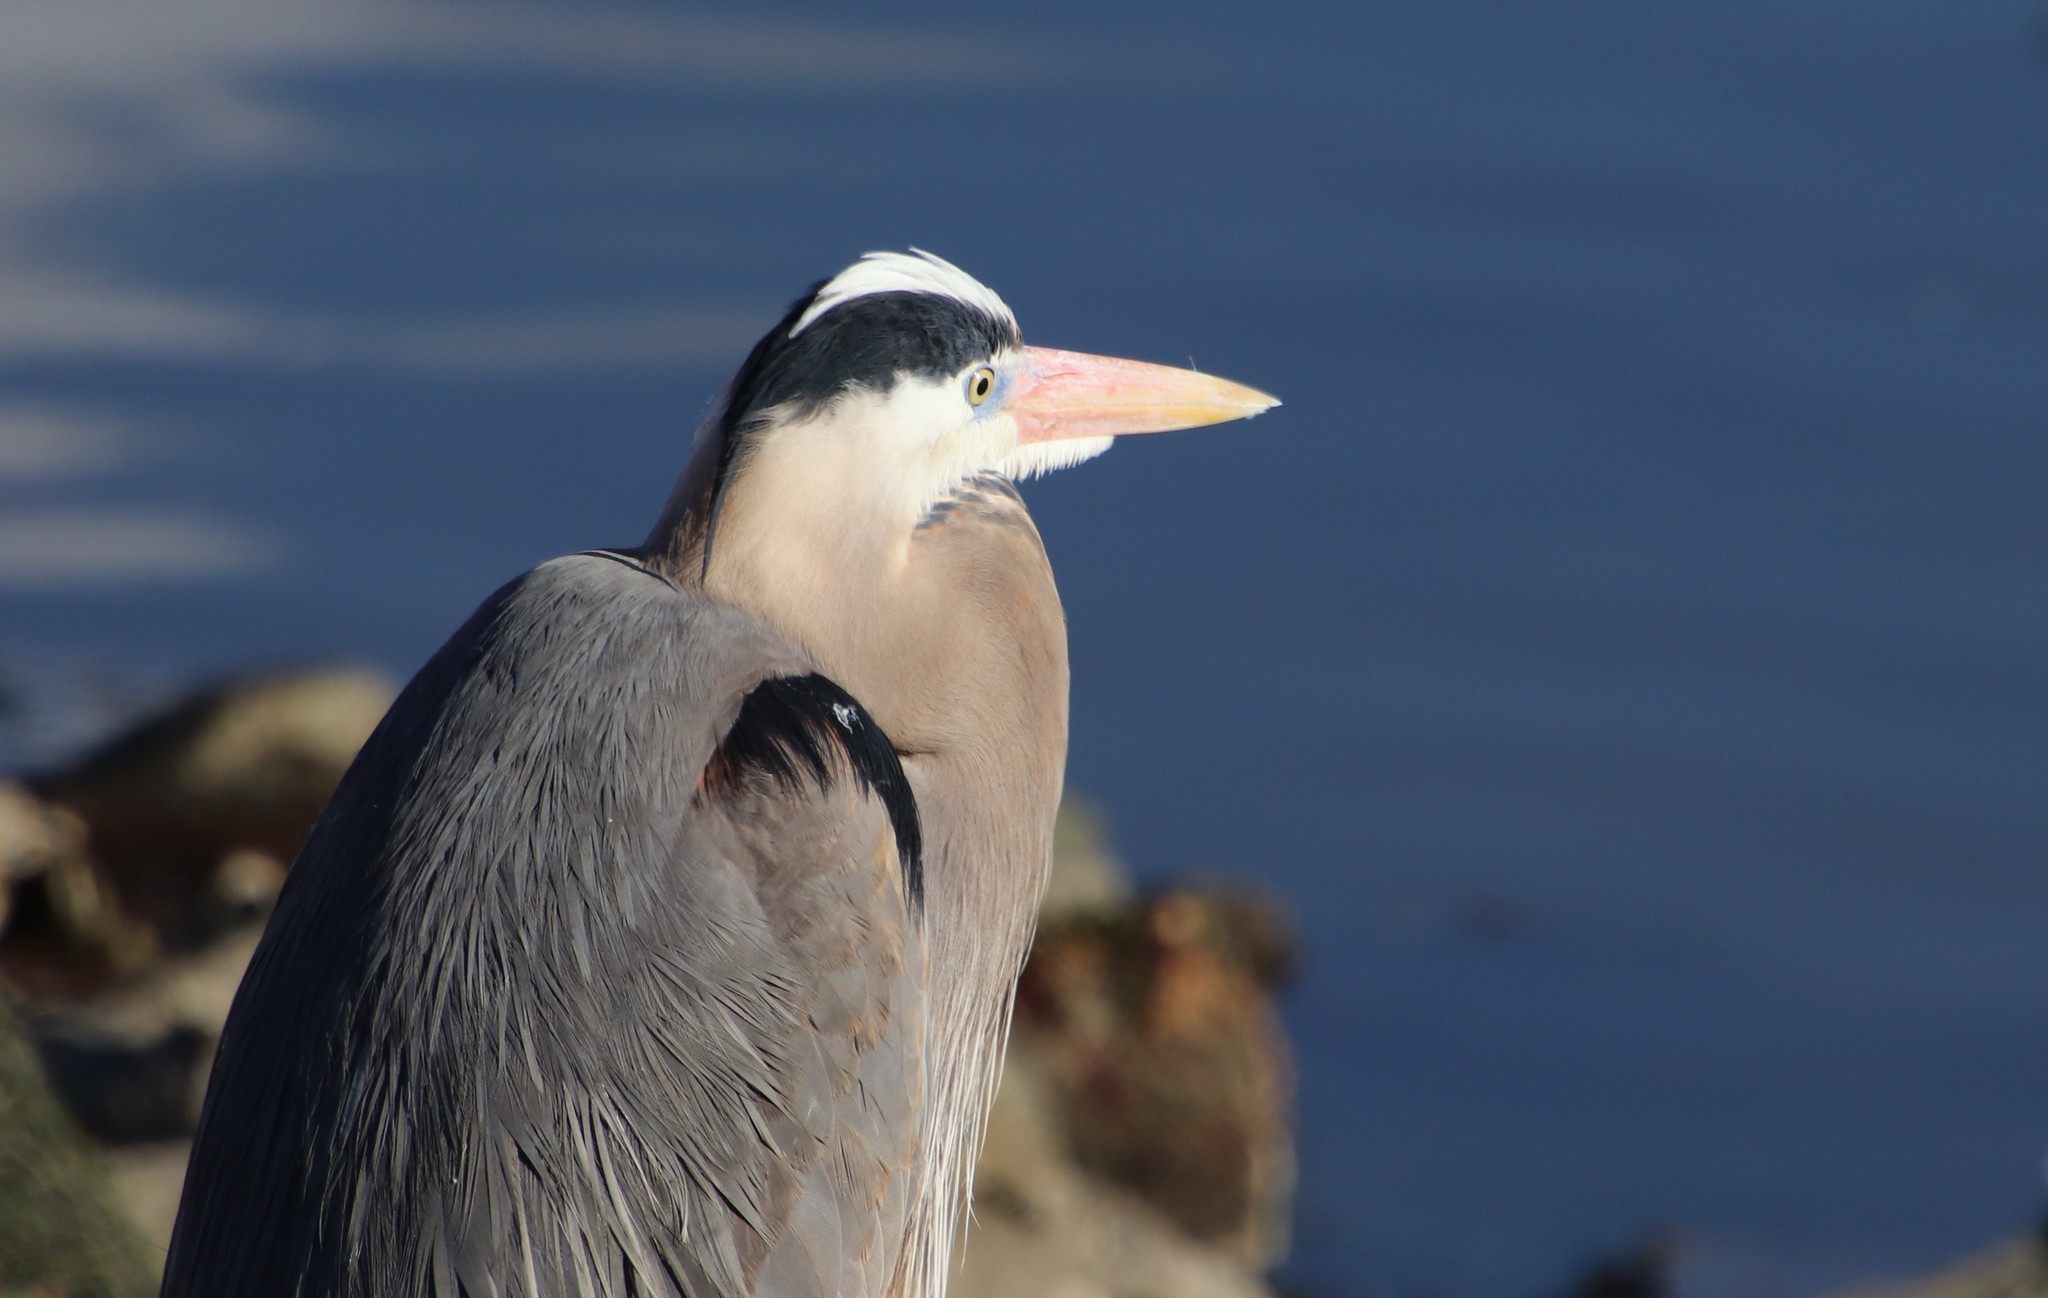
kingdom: Animalia
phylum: Chordata
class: Aves
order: Pelecaniformes
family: Ardeidae
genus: Ardea
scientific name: Ardea herodias
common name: Great blue heron
